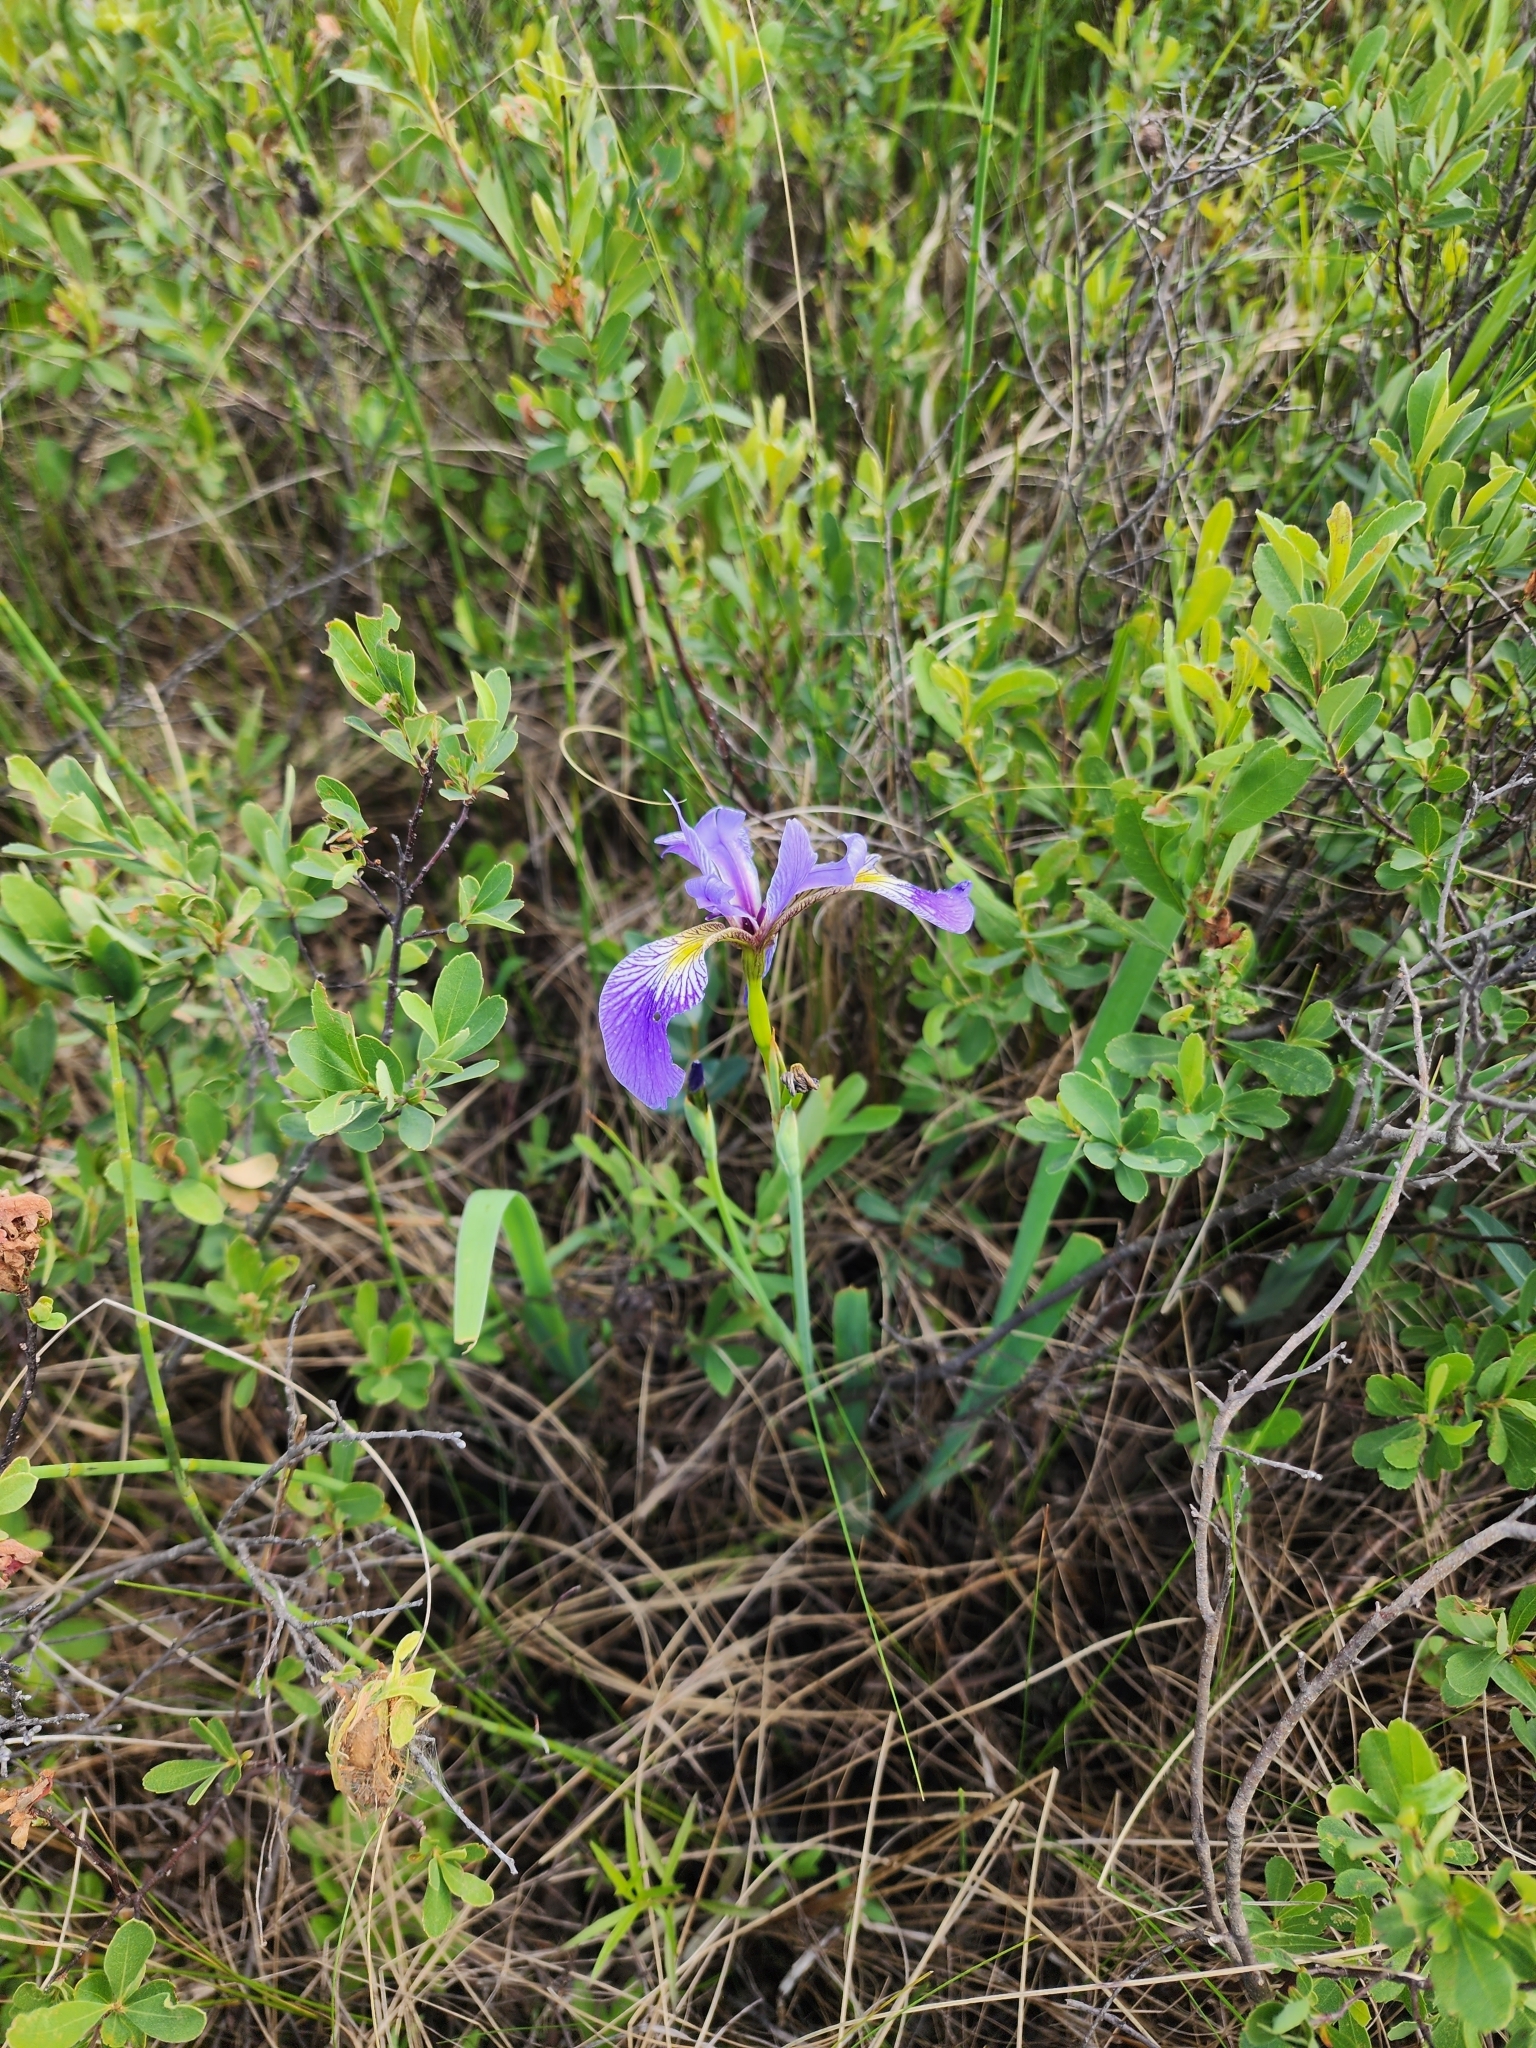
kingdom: Plantae
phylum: Tracheophyta
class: Liliopsida
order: Asparagales
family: Iridaceae
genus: Iris
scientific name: Iris versicolor
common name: Purple iris
